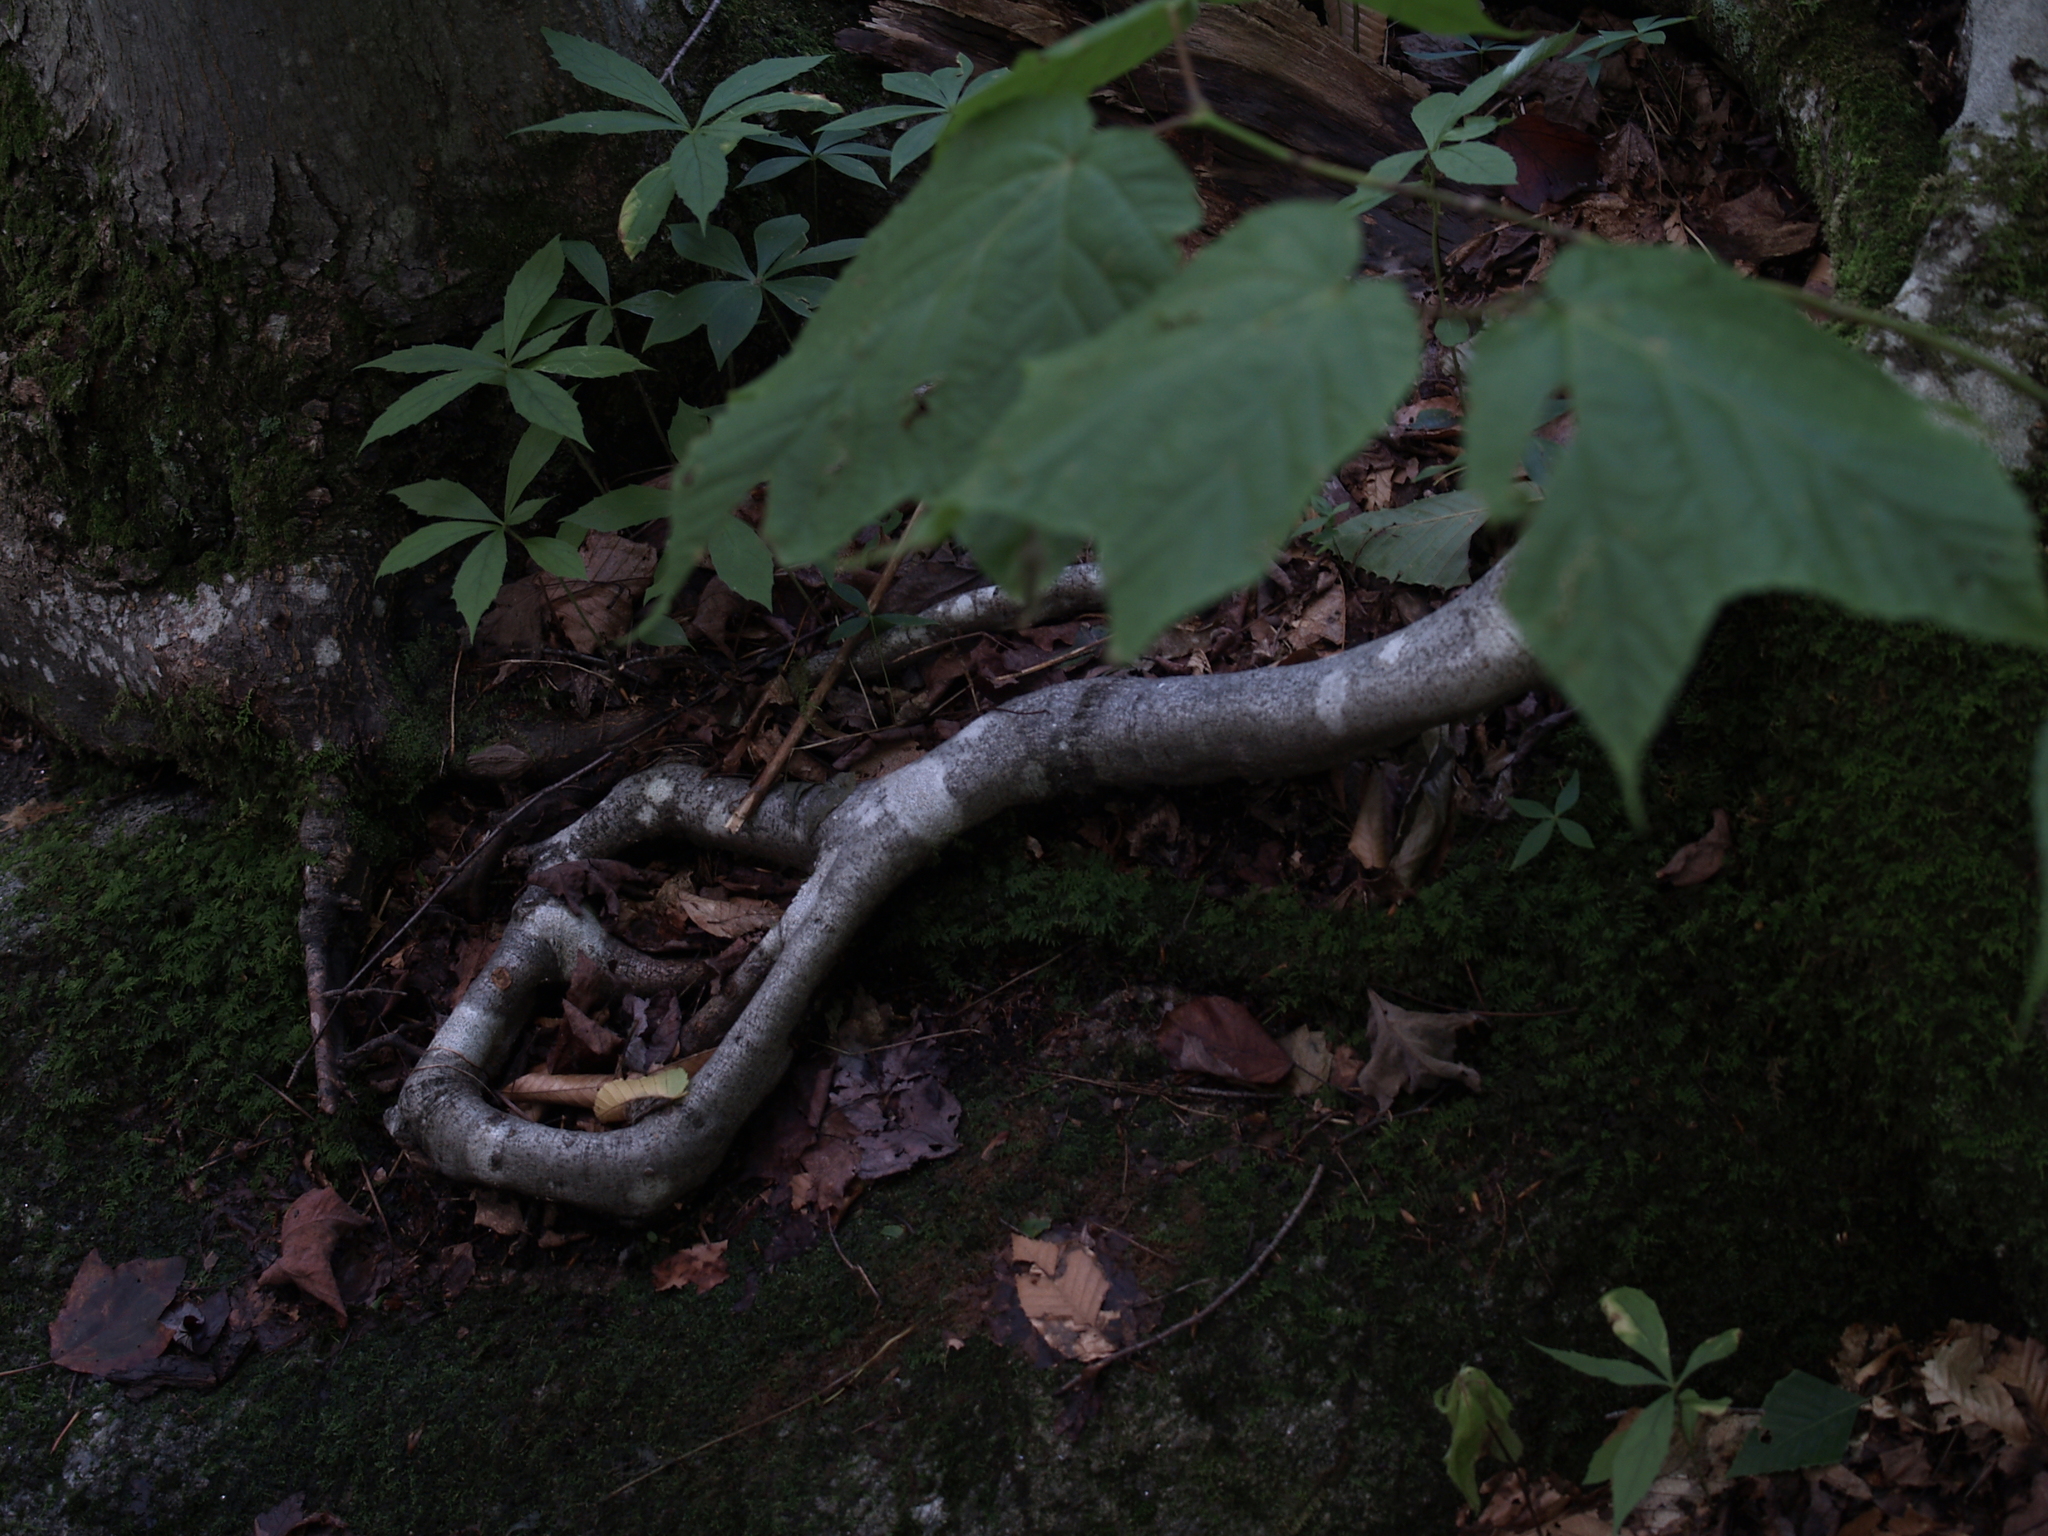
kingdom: Plantae
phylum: Tracheophyta
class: Magnoliopsida
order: Sapindales
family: Sapindaceae
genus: Acer
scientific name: Acer pensylvanicum
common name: Moosewood
